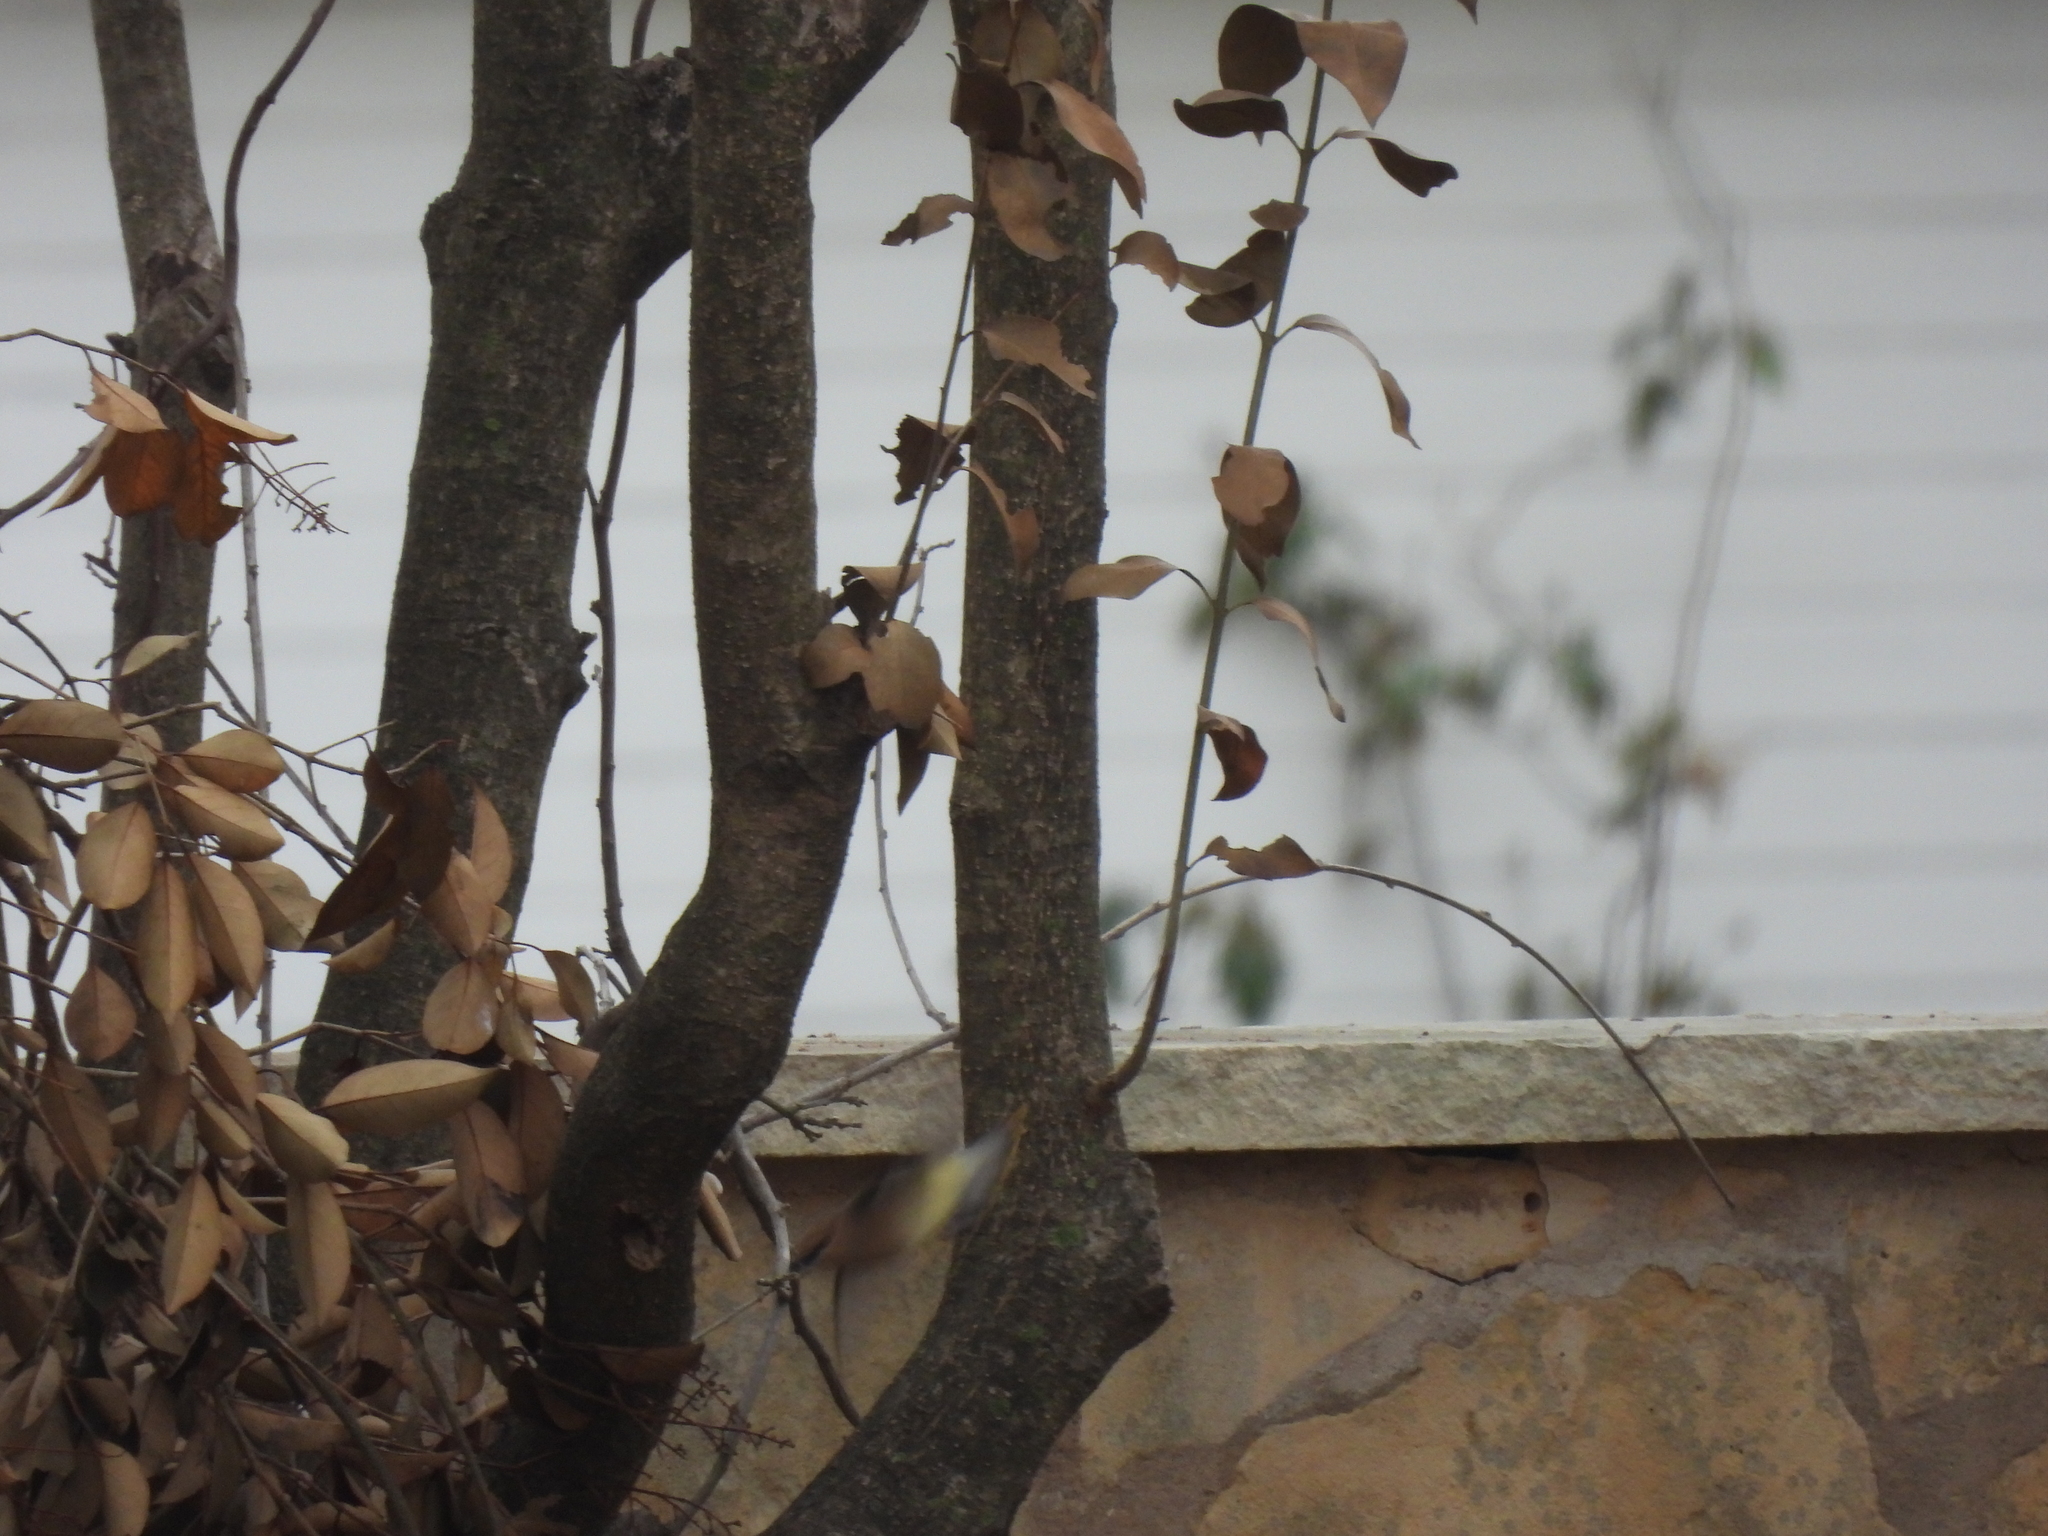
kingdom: Animalia
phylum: Chordata
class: Aves
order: Passeriformes
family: Bombycillidae
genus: Bombycilla
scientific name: Bombycilla cedrorum
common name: Cedar waxwing
